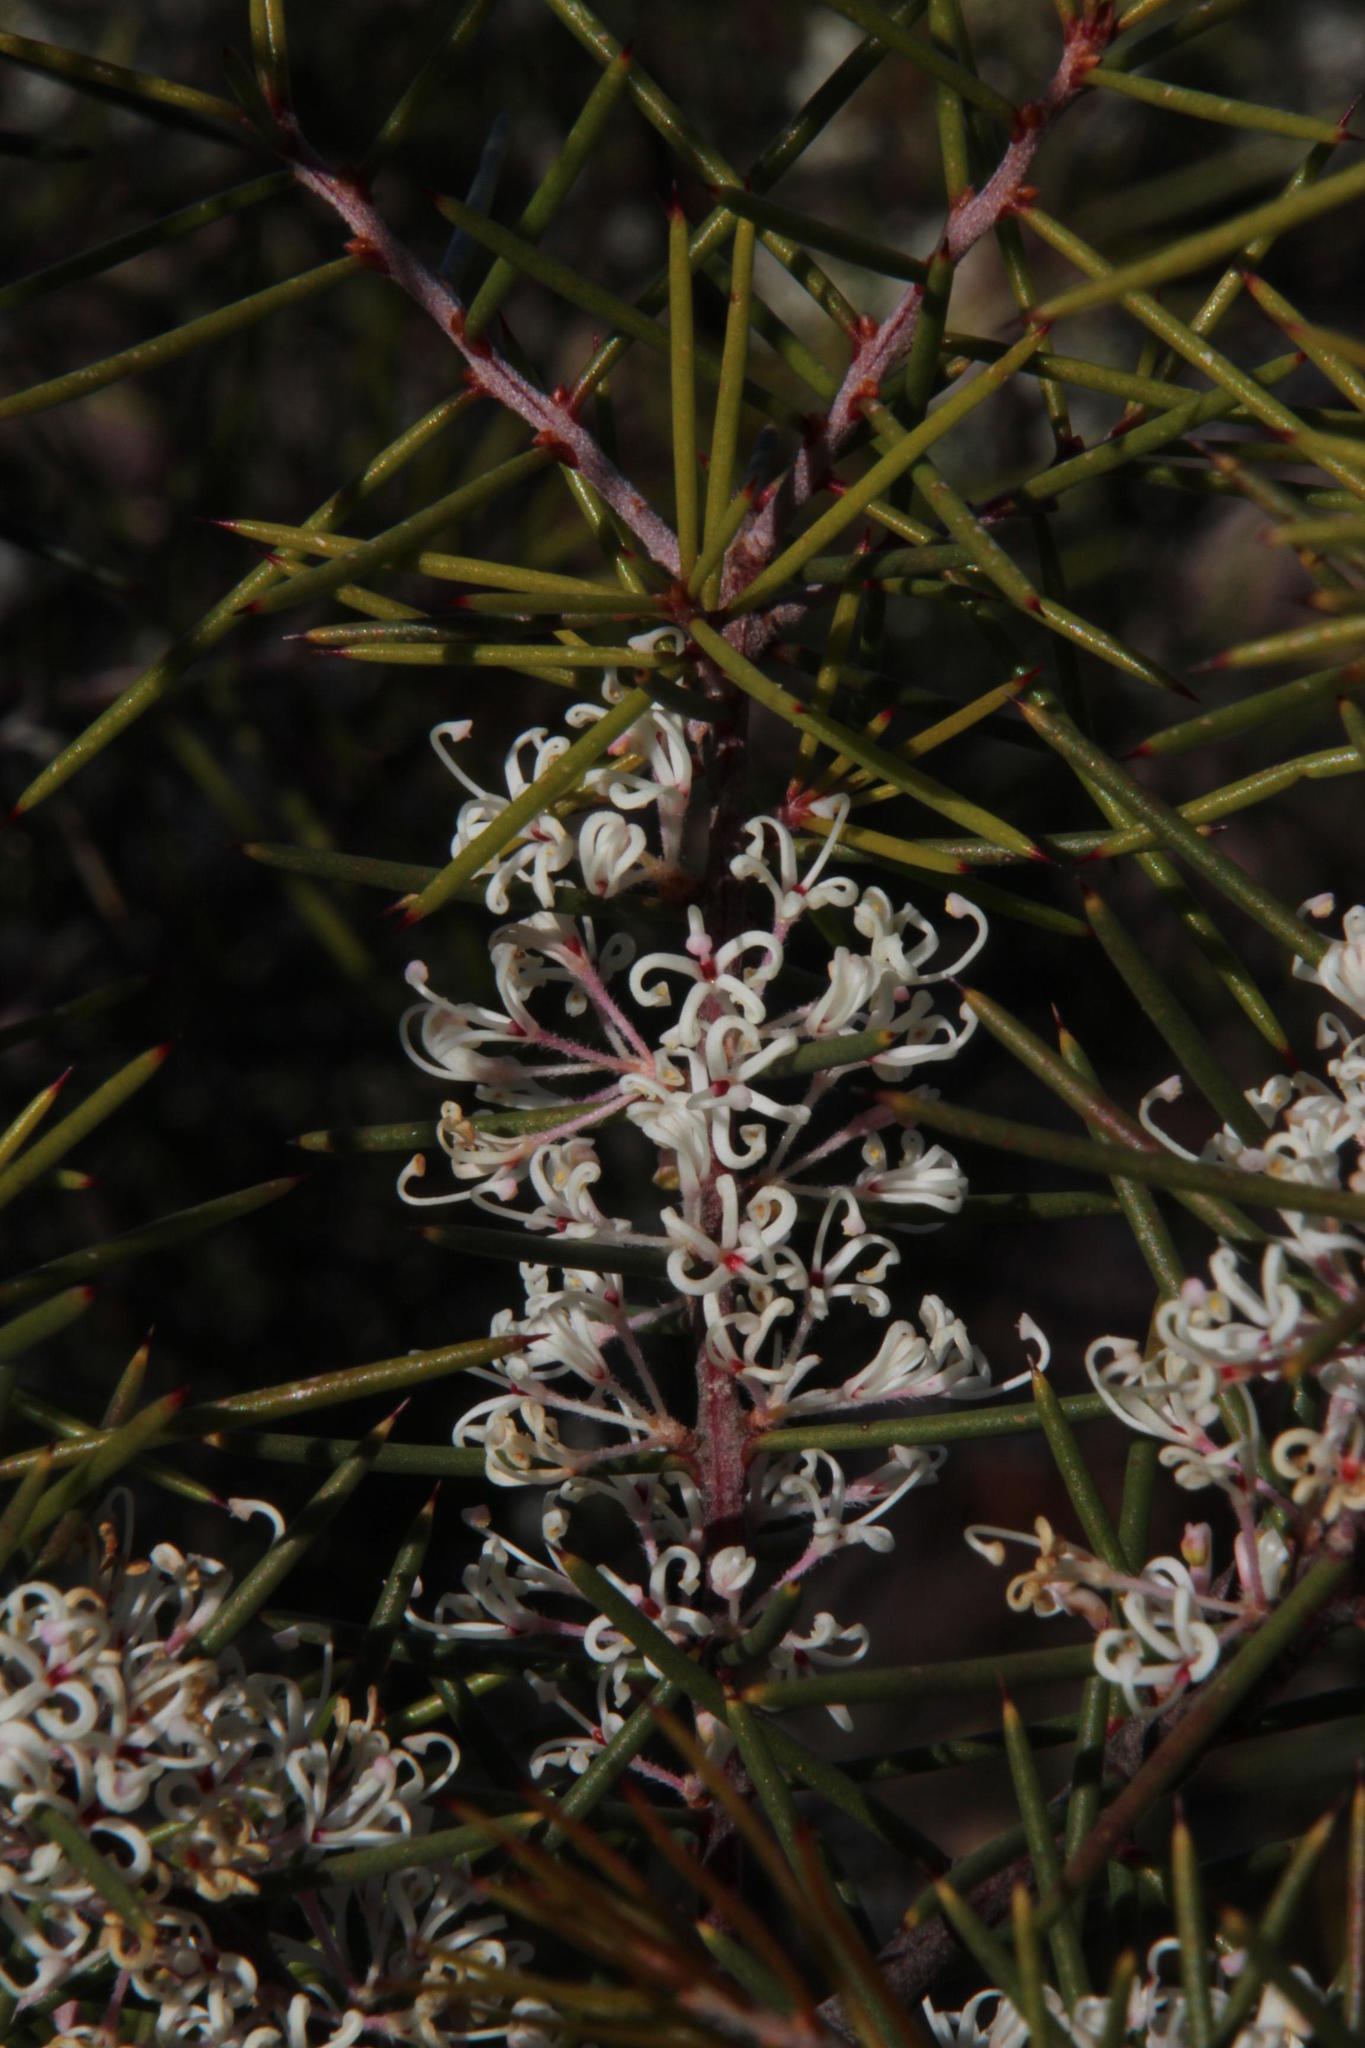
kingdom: Plantae
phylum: Tracheophyta
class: Magnoliopsida
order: Proteales
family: Proteaceae
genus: Hakea
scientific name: Hakea sericea
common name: Needle bush
